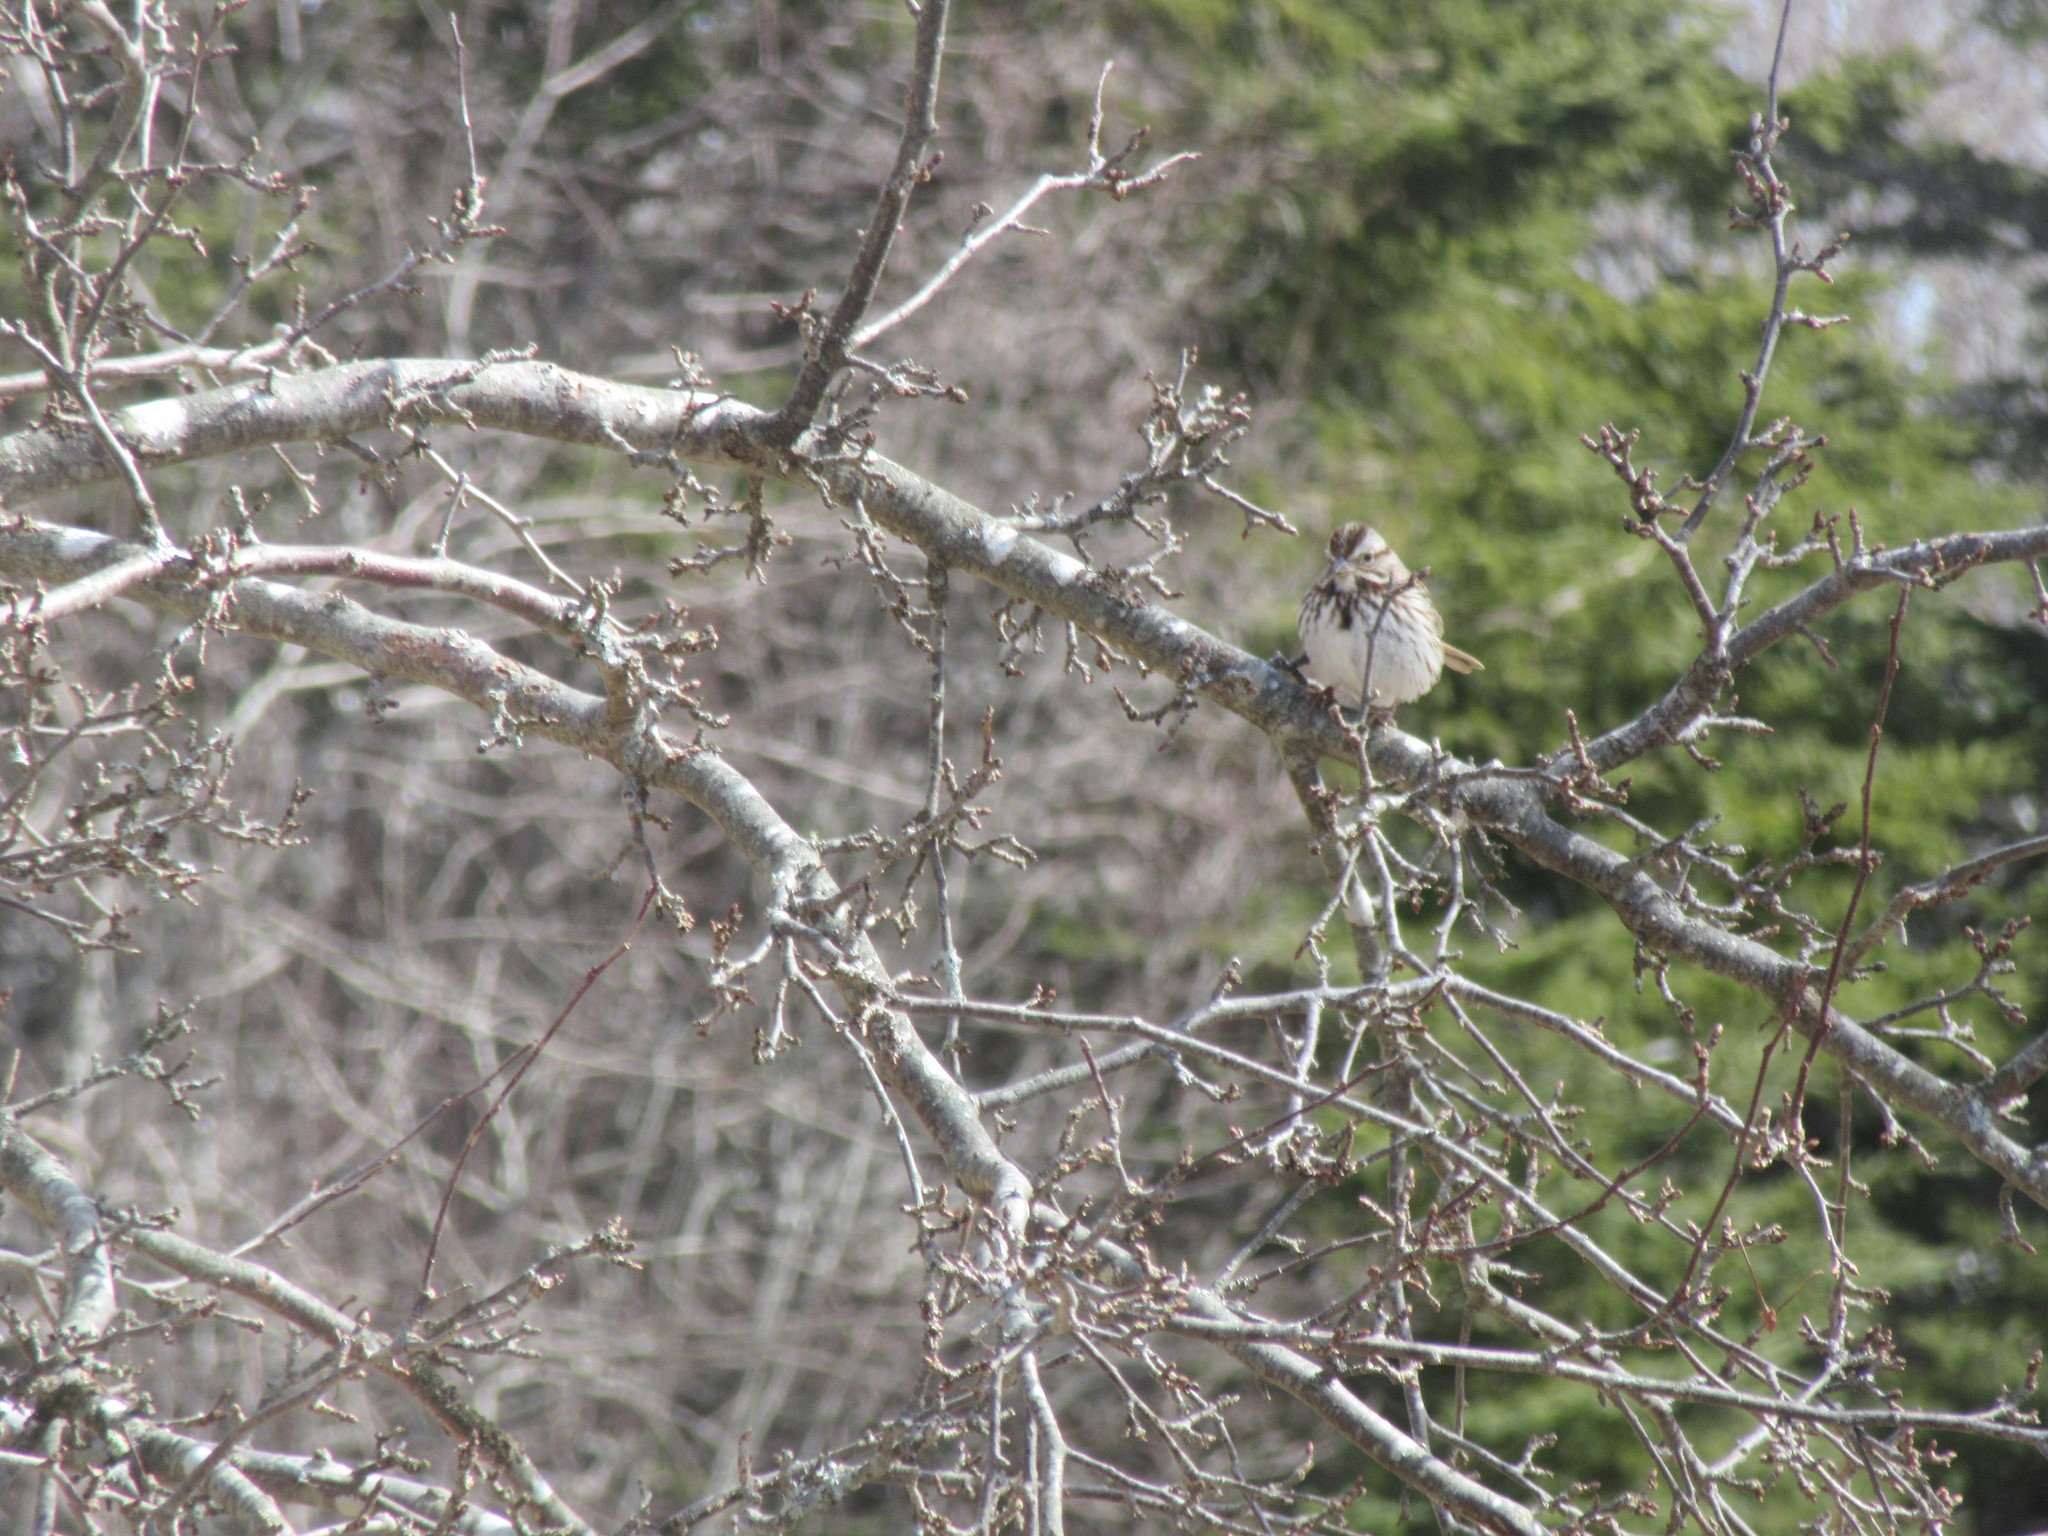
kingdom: Animalia
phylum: Chordata
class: Aves
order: Passeriformes
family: Passerellidae
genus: Melospiza
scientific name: Melospiza melodia
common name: Song sparrow
